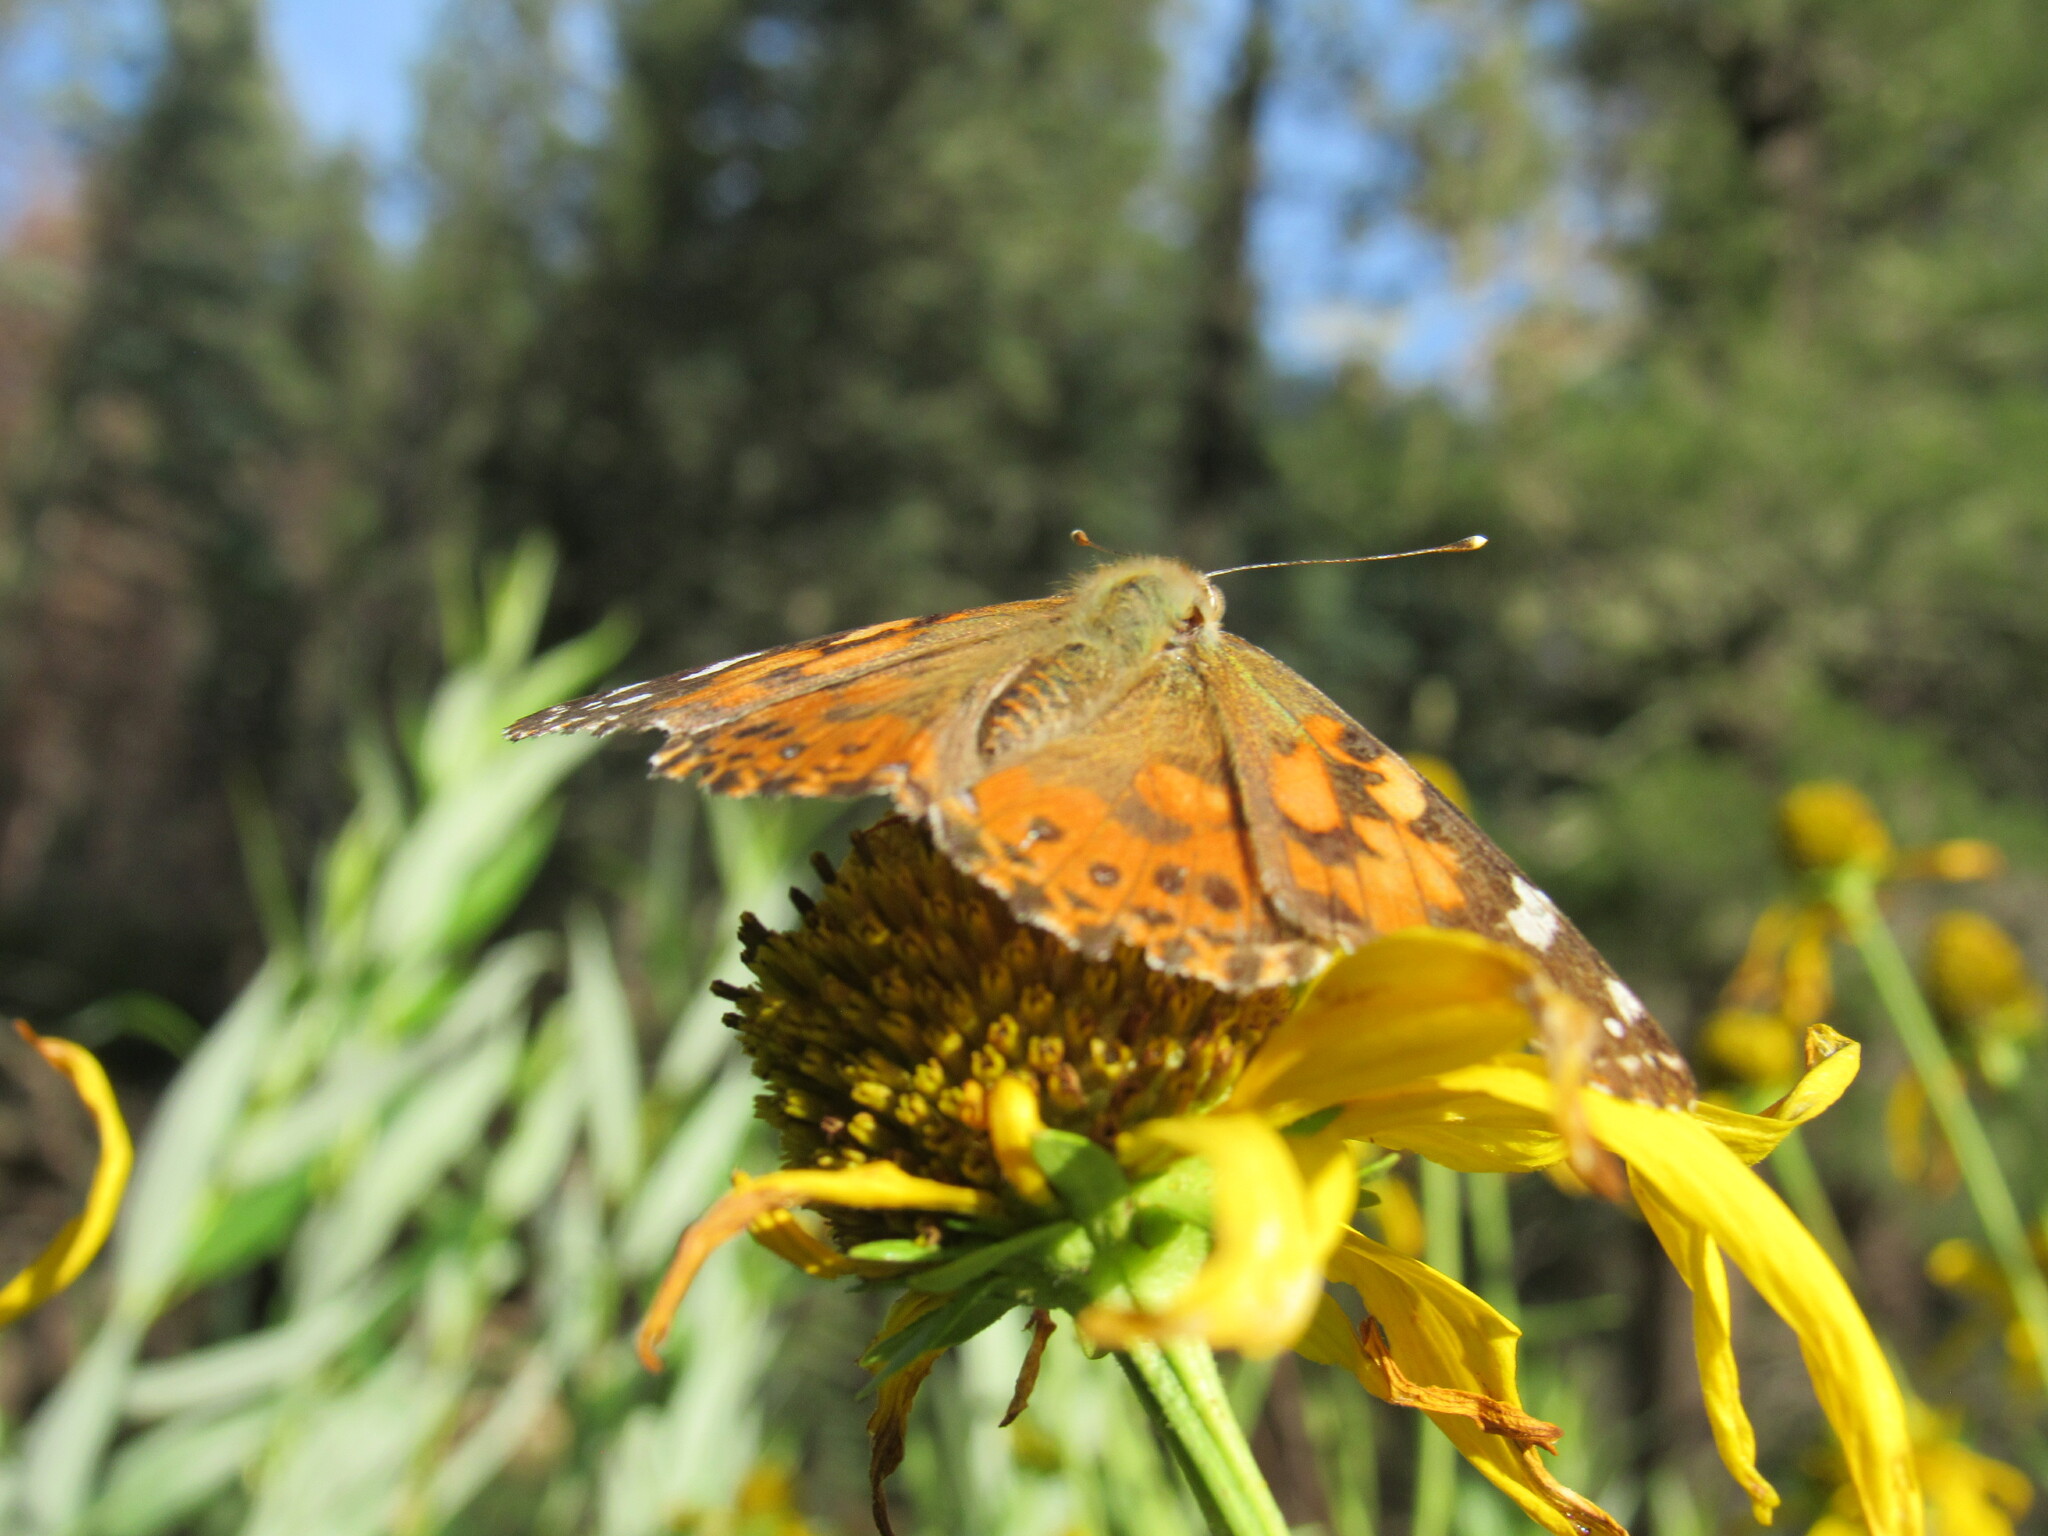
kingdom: Animalia
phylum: Arthropoda
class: Insecta
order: Lepidoptera
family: Nymphalidae
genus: Vanessa
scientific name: Vanessa cardui
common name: Painted lady
